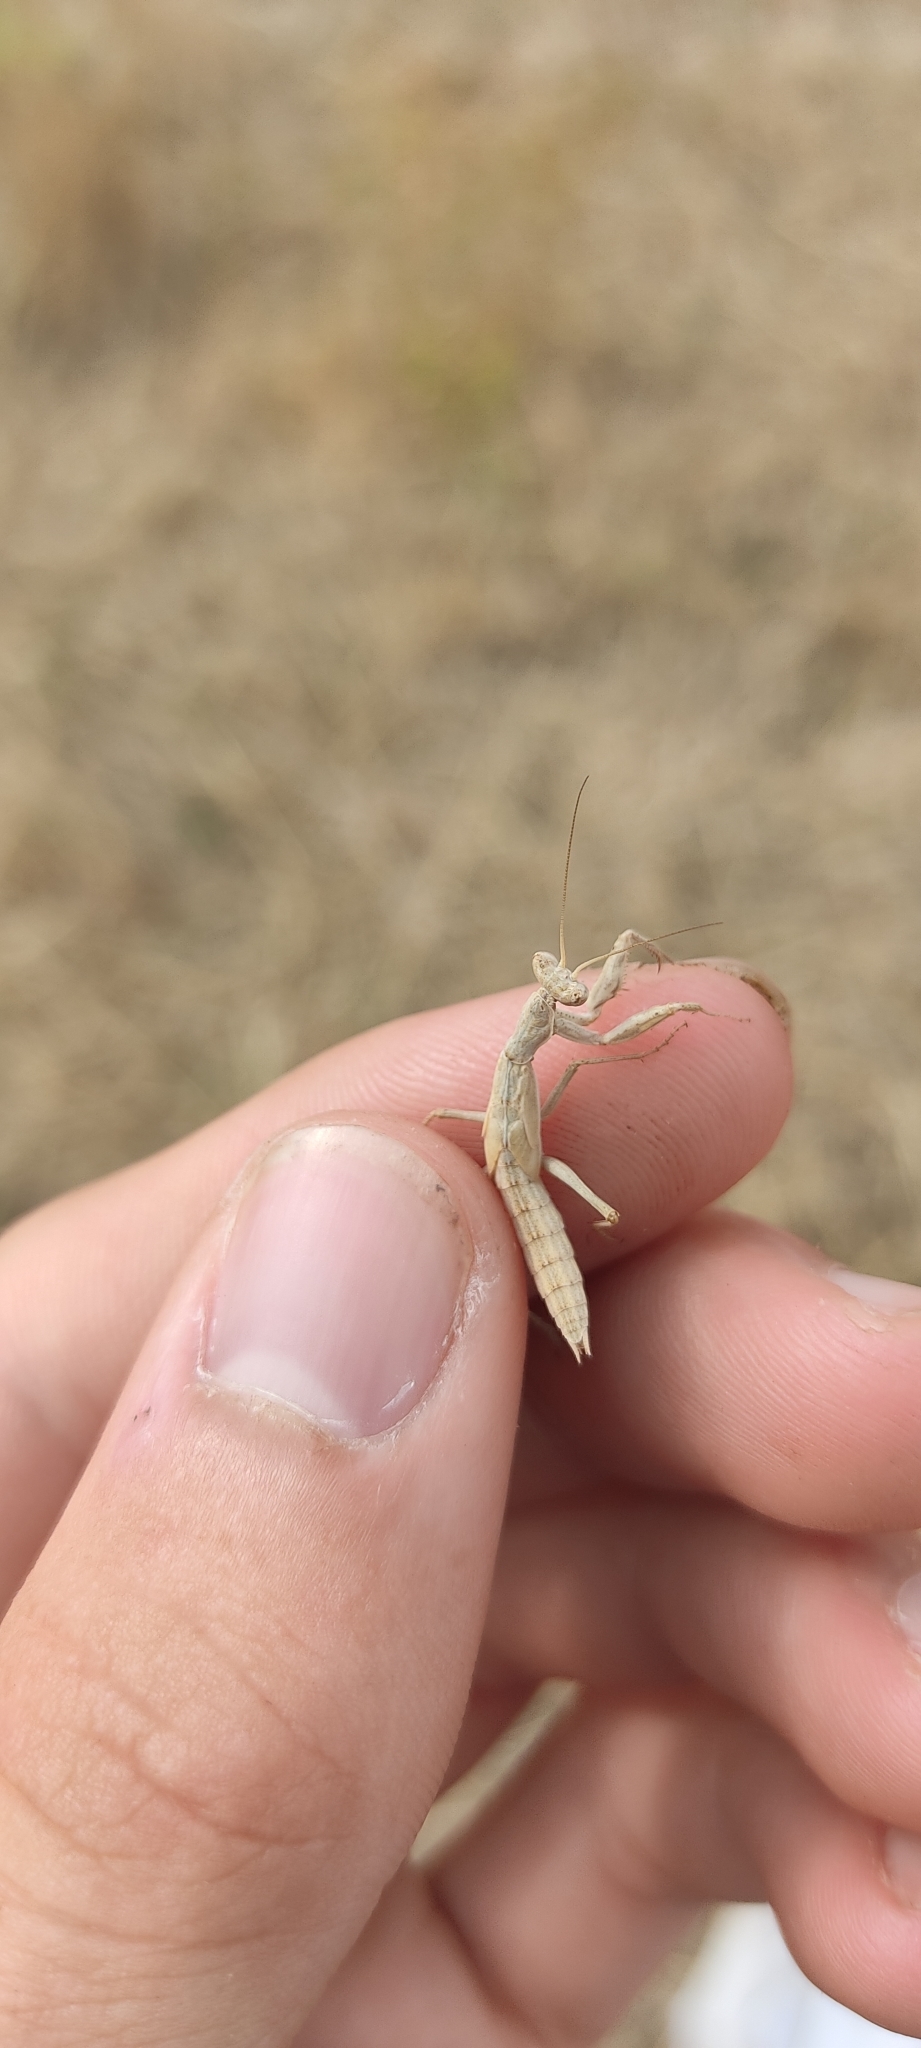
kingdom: Animalia
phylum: Arthropoda
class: Insecta
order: Mantodea
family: Amelidae
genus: Ameles
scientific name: Ameles decolor
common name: Dwarf mantis
